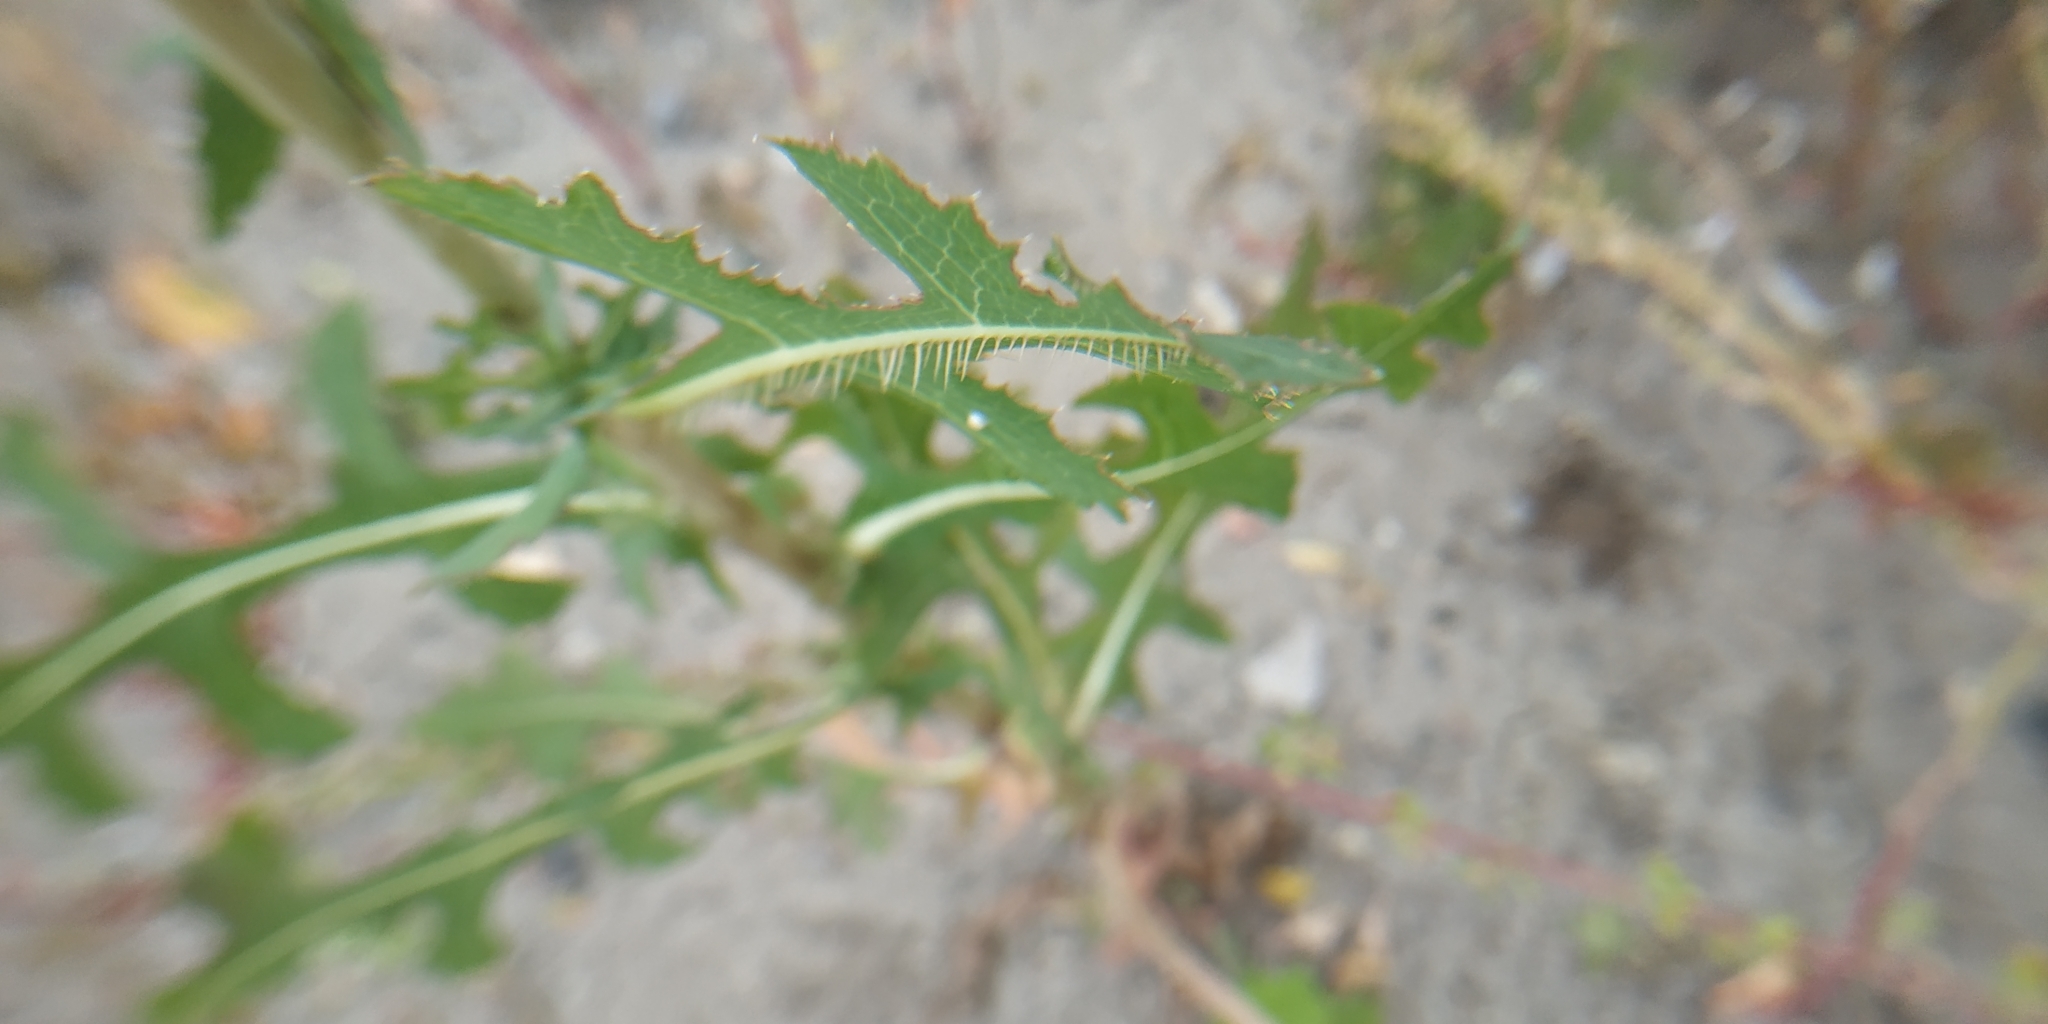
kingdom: Plantae
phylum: Tracheophyta
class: Magnoliopsida
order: Asterales
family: Asteraceae
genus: Lactuca
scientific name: Lactuca serriola
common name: Prickly lettuce
